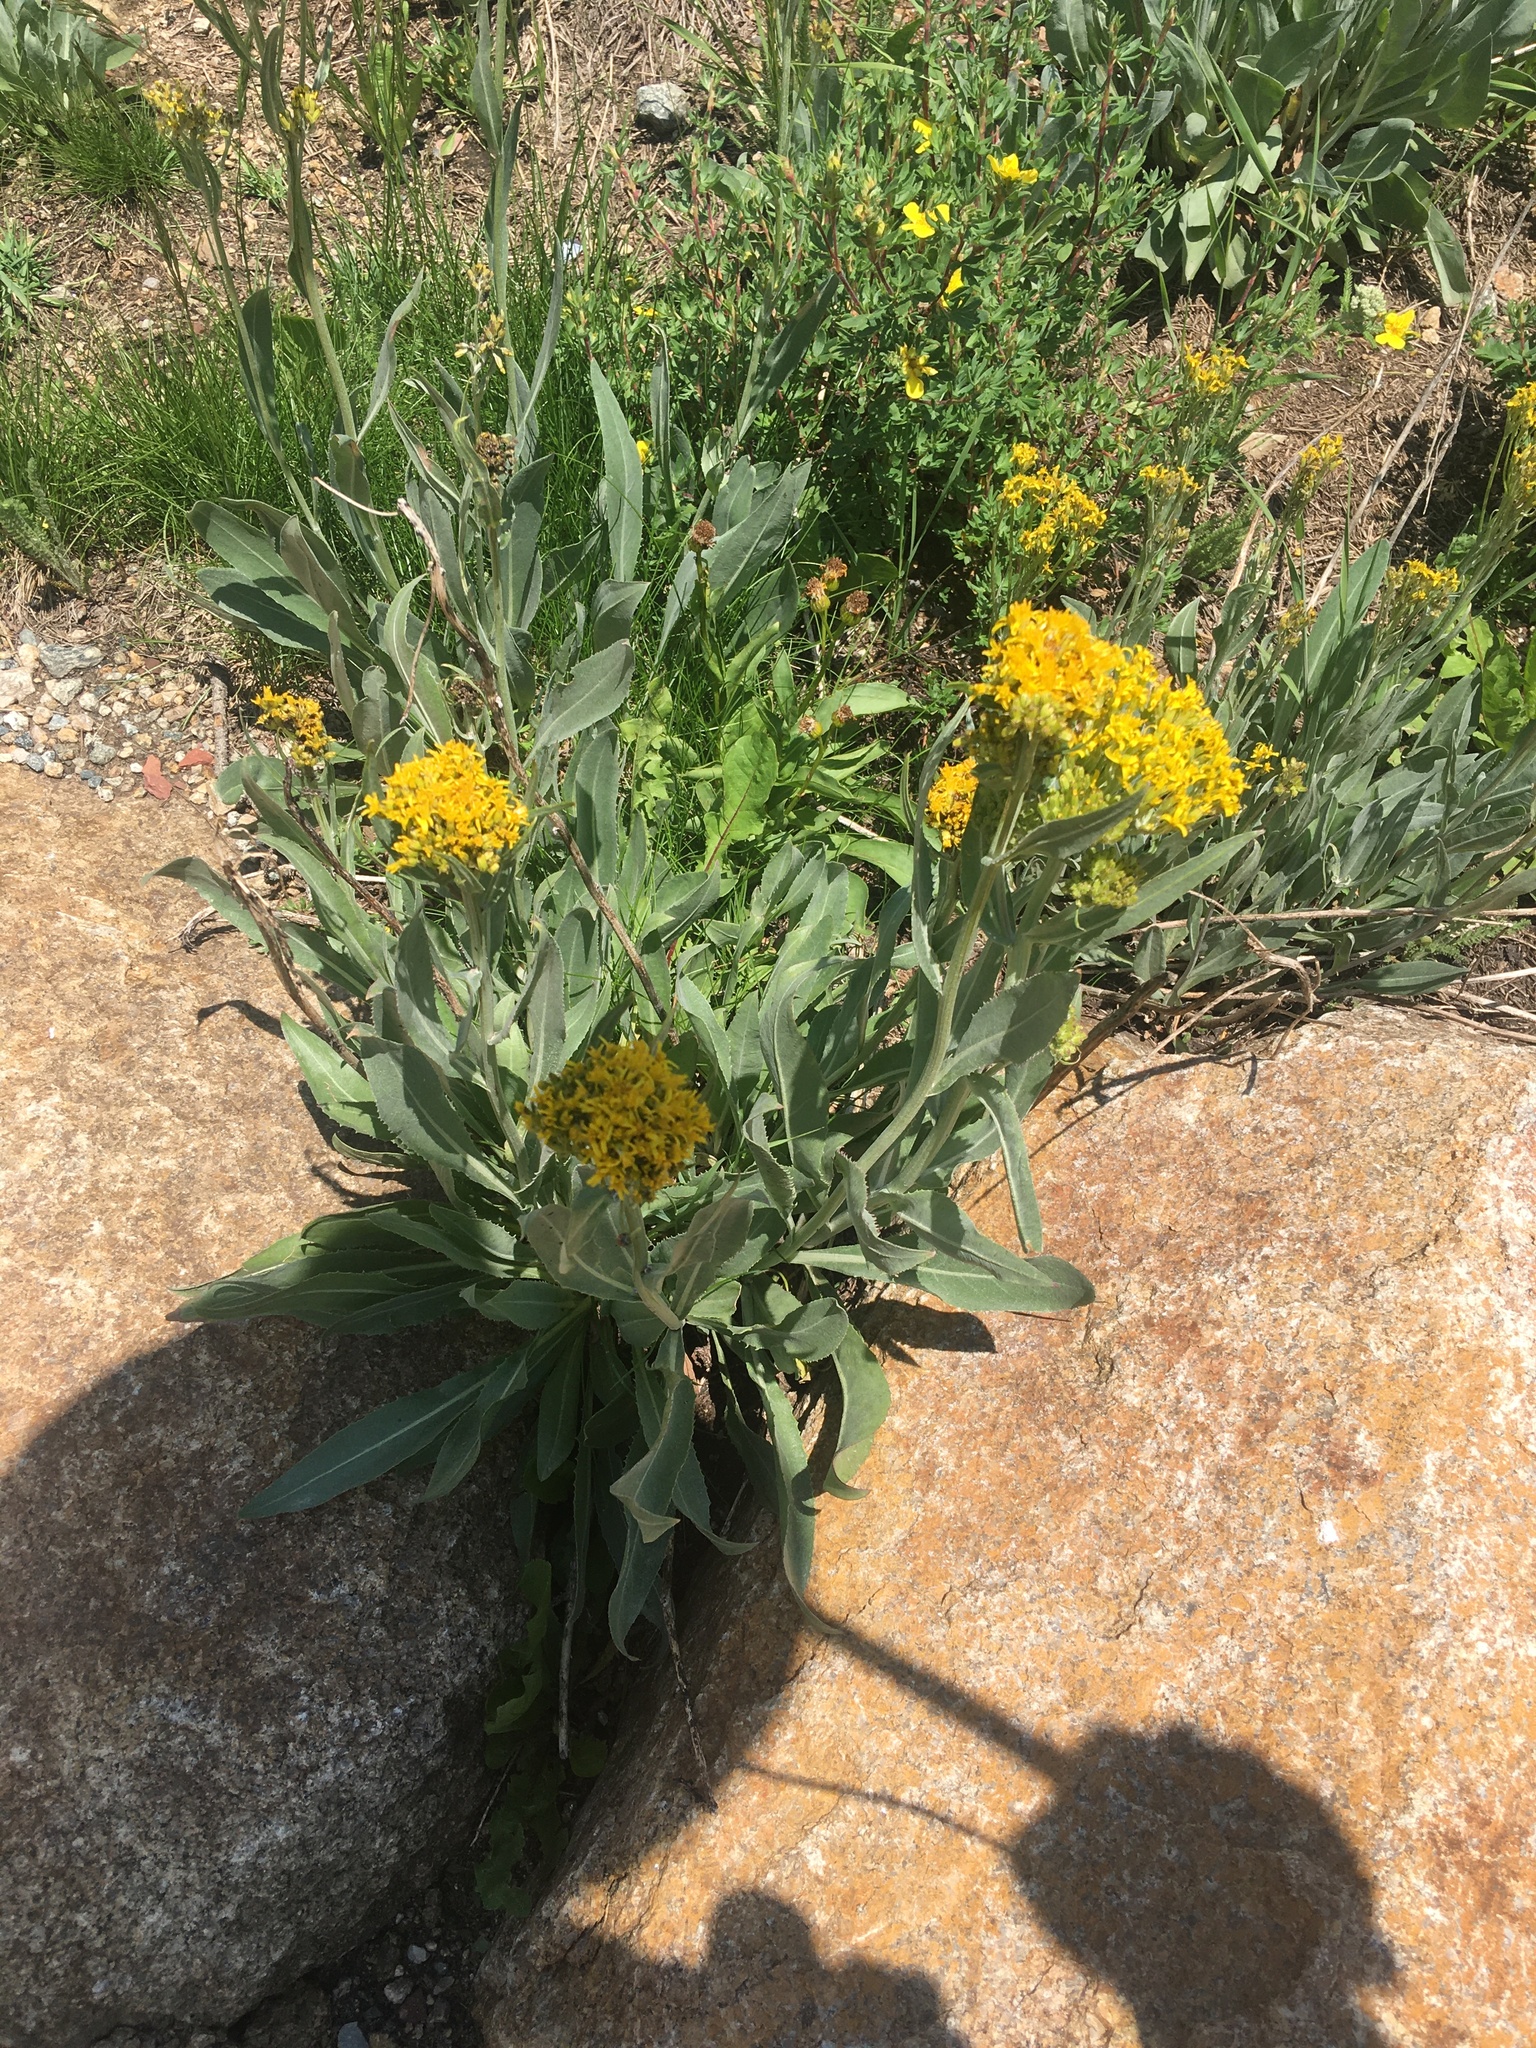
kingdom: Plantae
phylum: Tracheophyta
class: Magnoliopsida
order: Asterales
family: Asteraceae
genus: Senecio
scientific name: Senecio atratus
